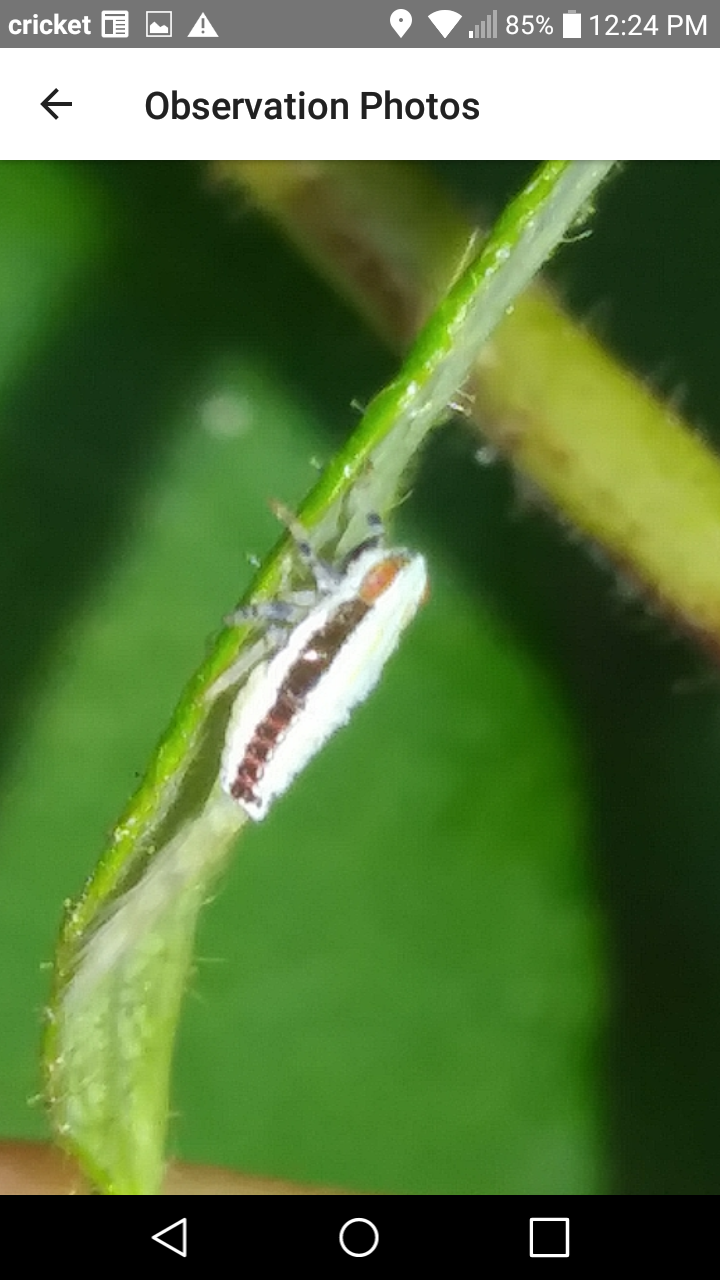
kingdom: Animalia
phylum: Arthropoda
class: Insecta
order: Hemiptera
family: Issidae
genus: Thionia
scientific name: Thionia bullata
